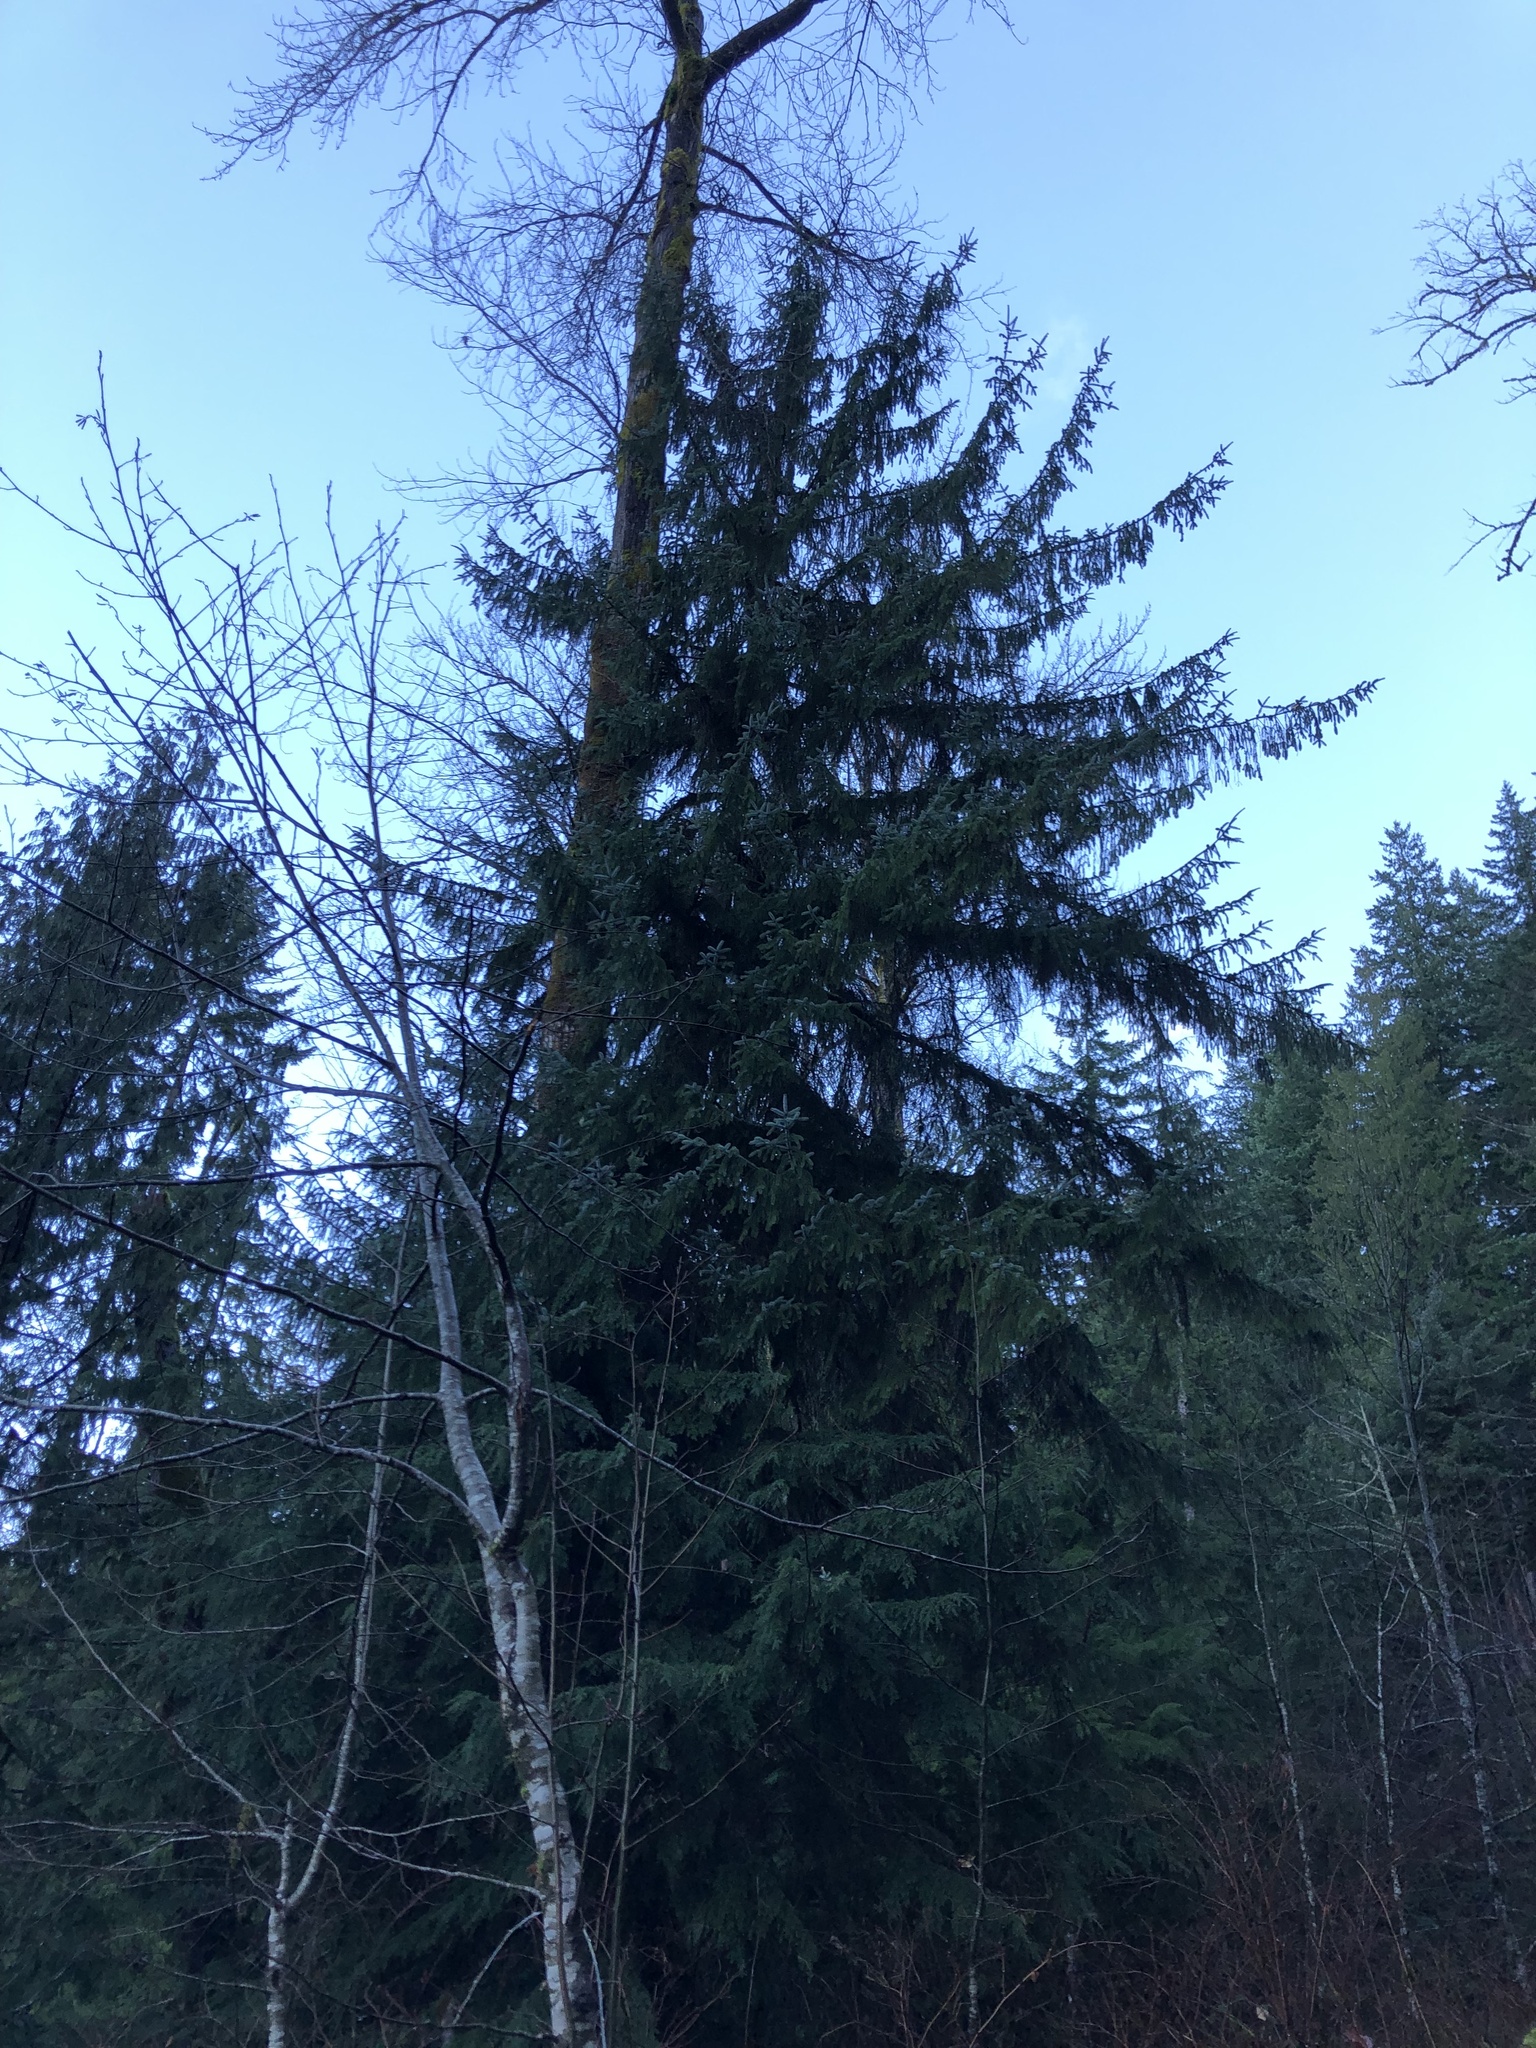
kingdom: Plantae
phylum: Tracheophyta
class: Pinopsida
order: Pinales
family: Pinaceae
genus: Picea
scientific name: Picea sitchensis
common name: Sitka spruce
